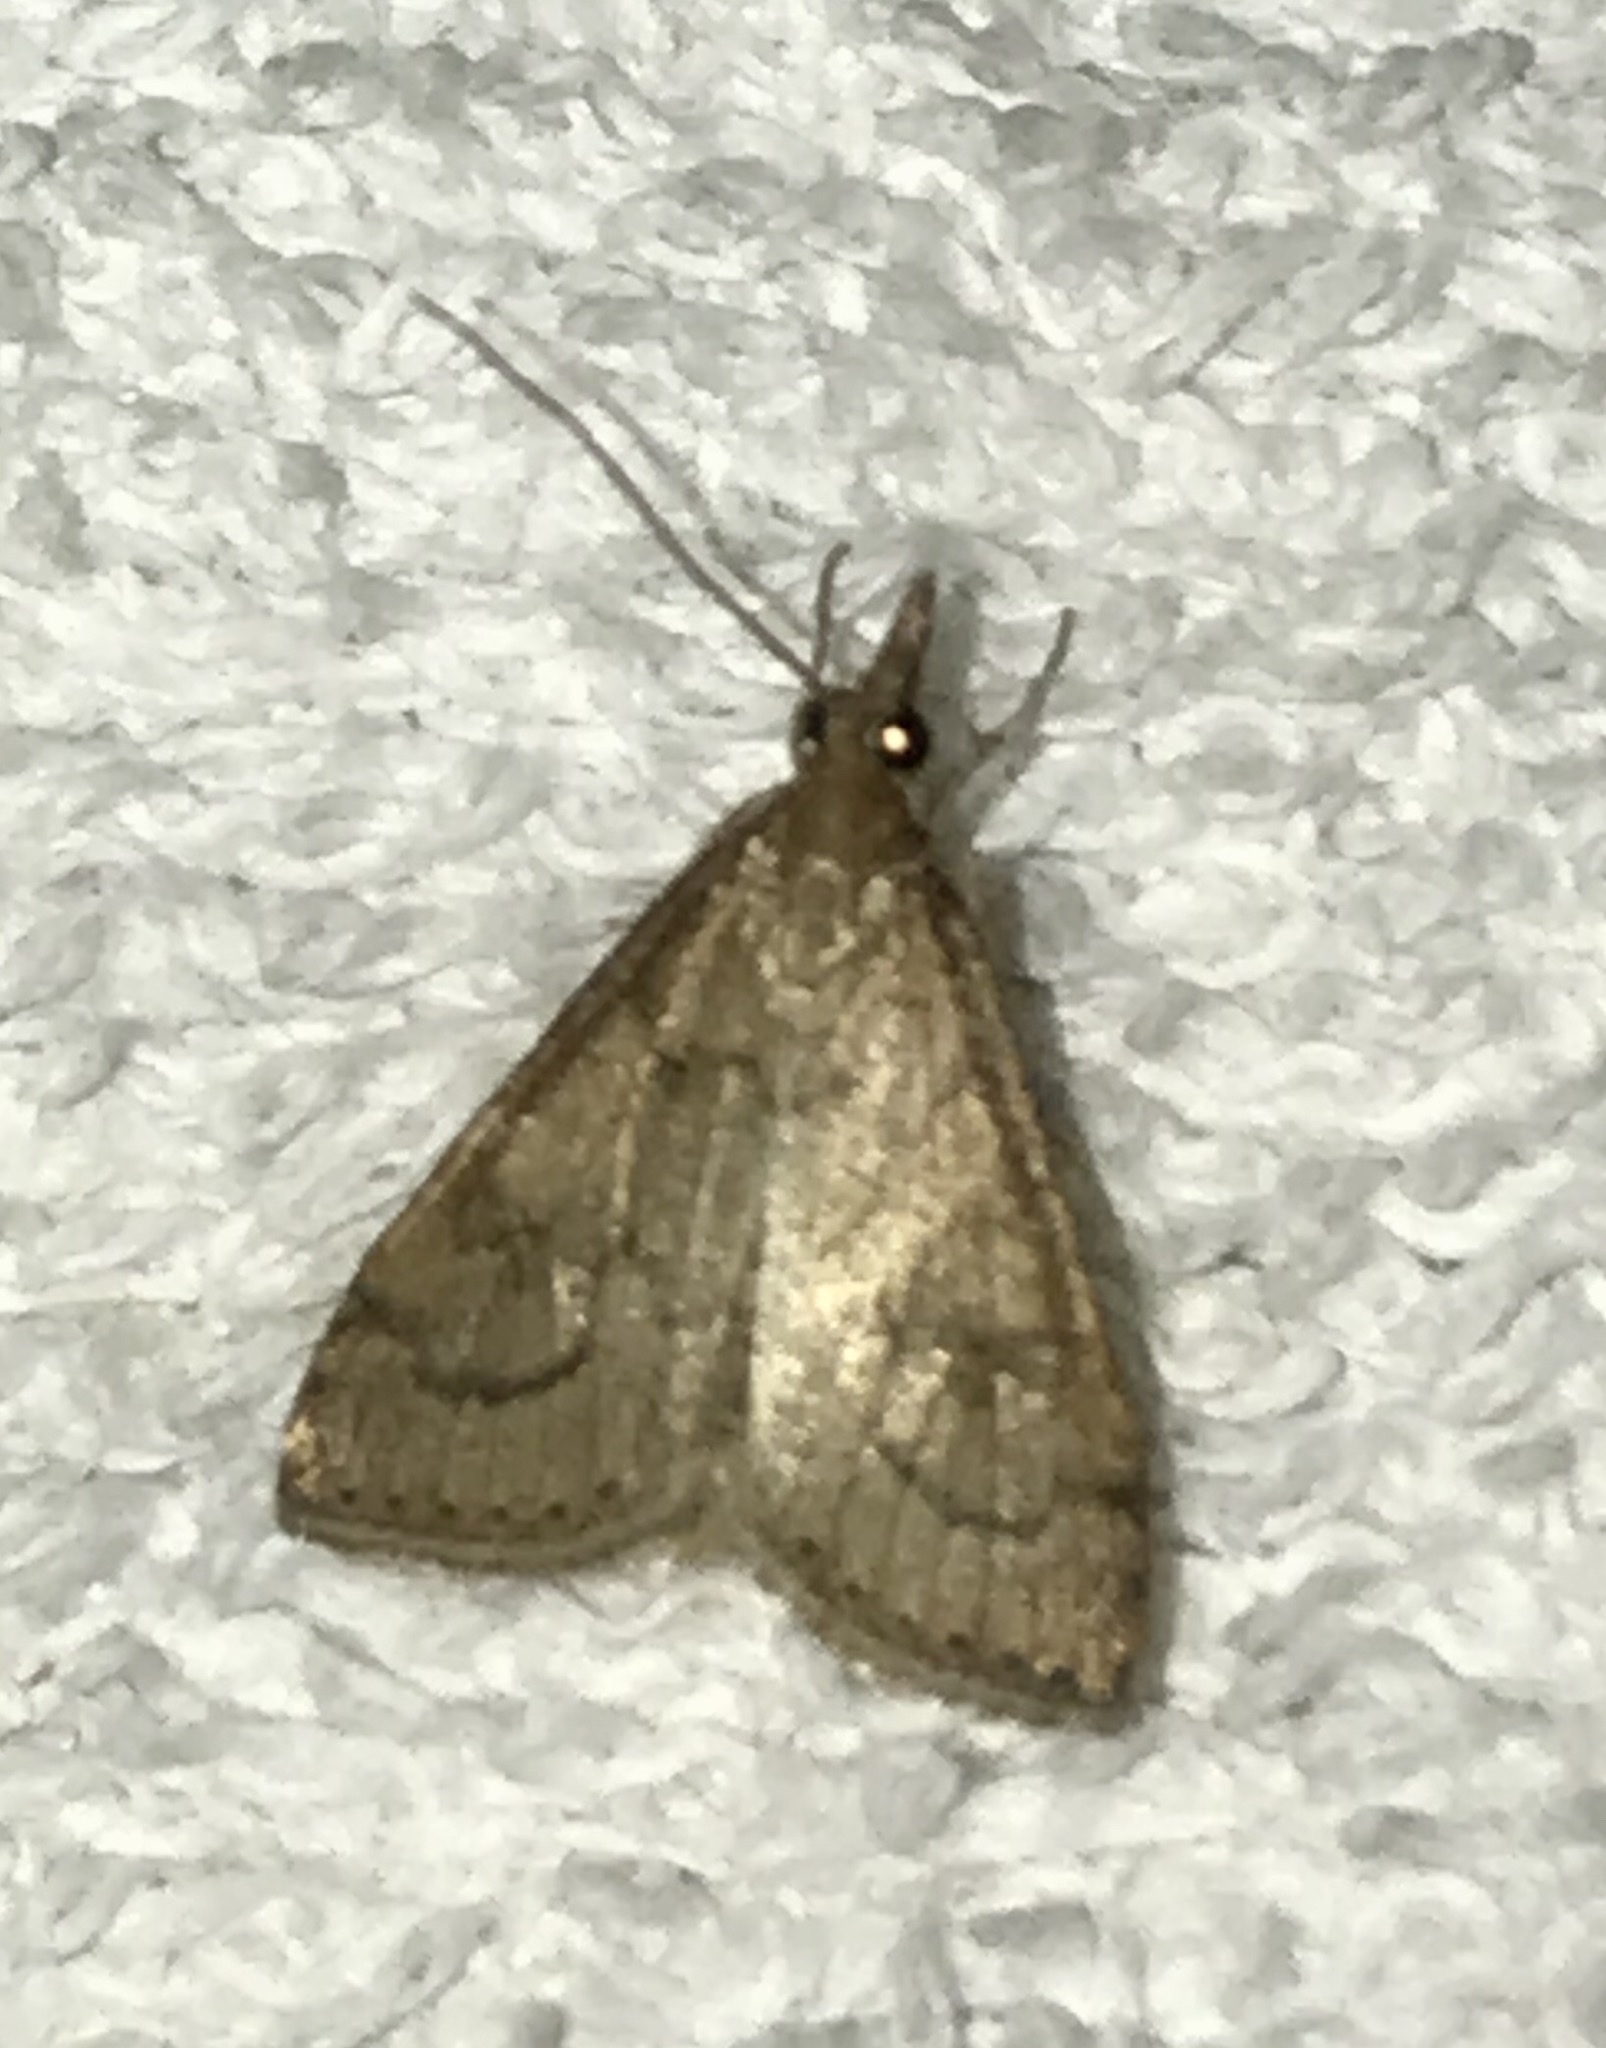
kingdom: Animalia
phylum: Arthropoda
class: Insecta
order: Lepidoptera
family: Crambidae
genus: Udea
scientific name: Udea rubigalis
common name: Celery leaftier moth
